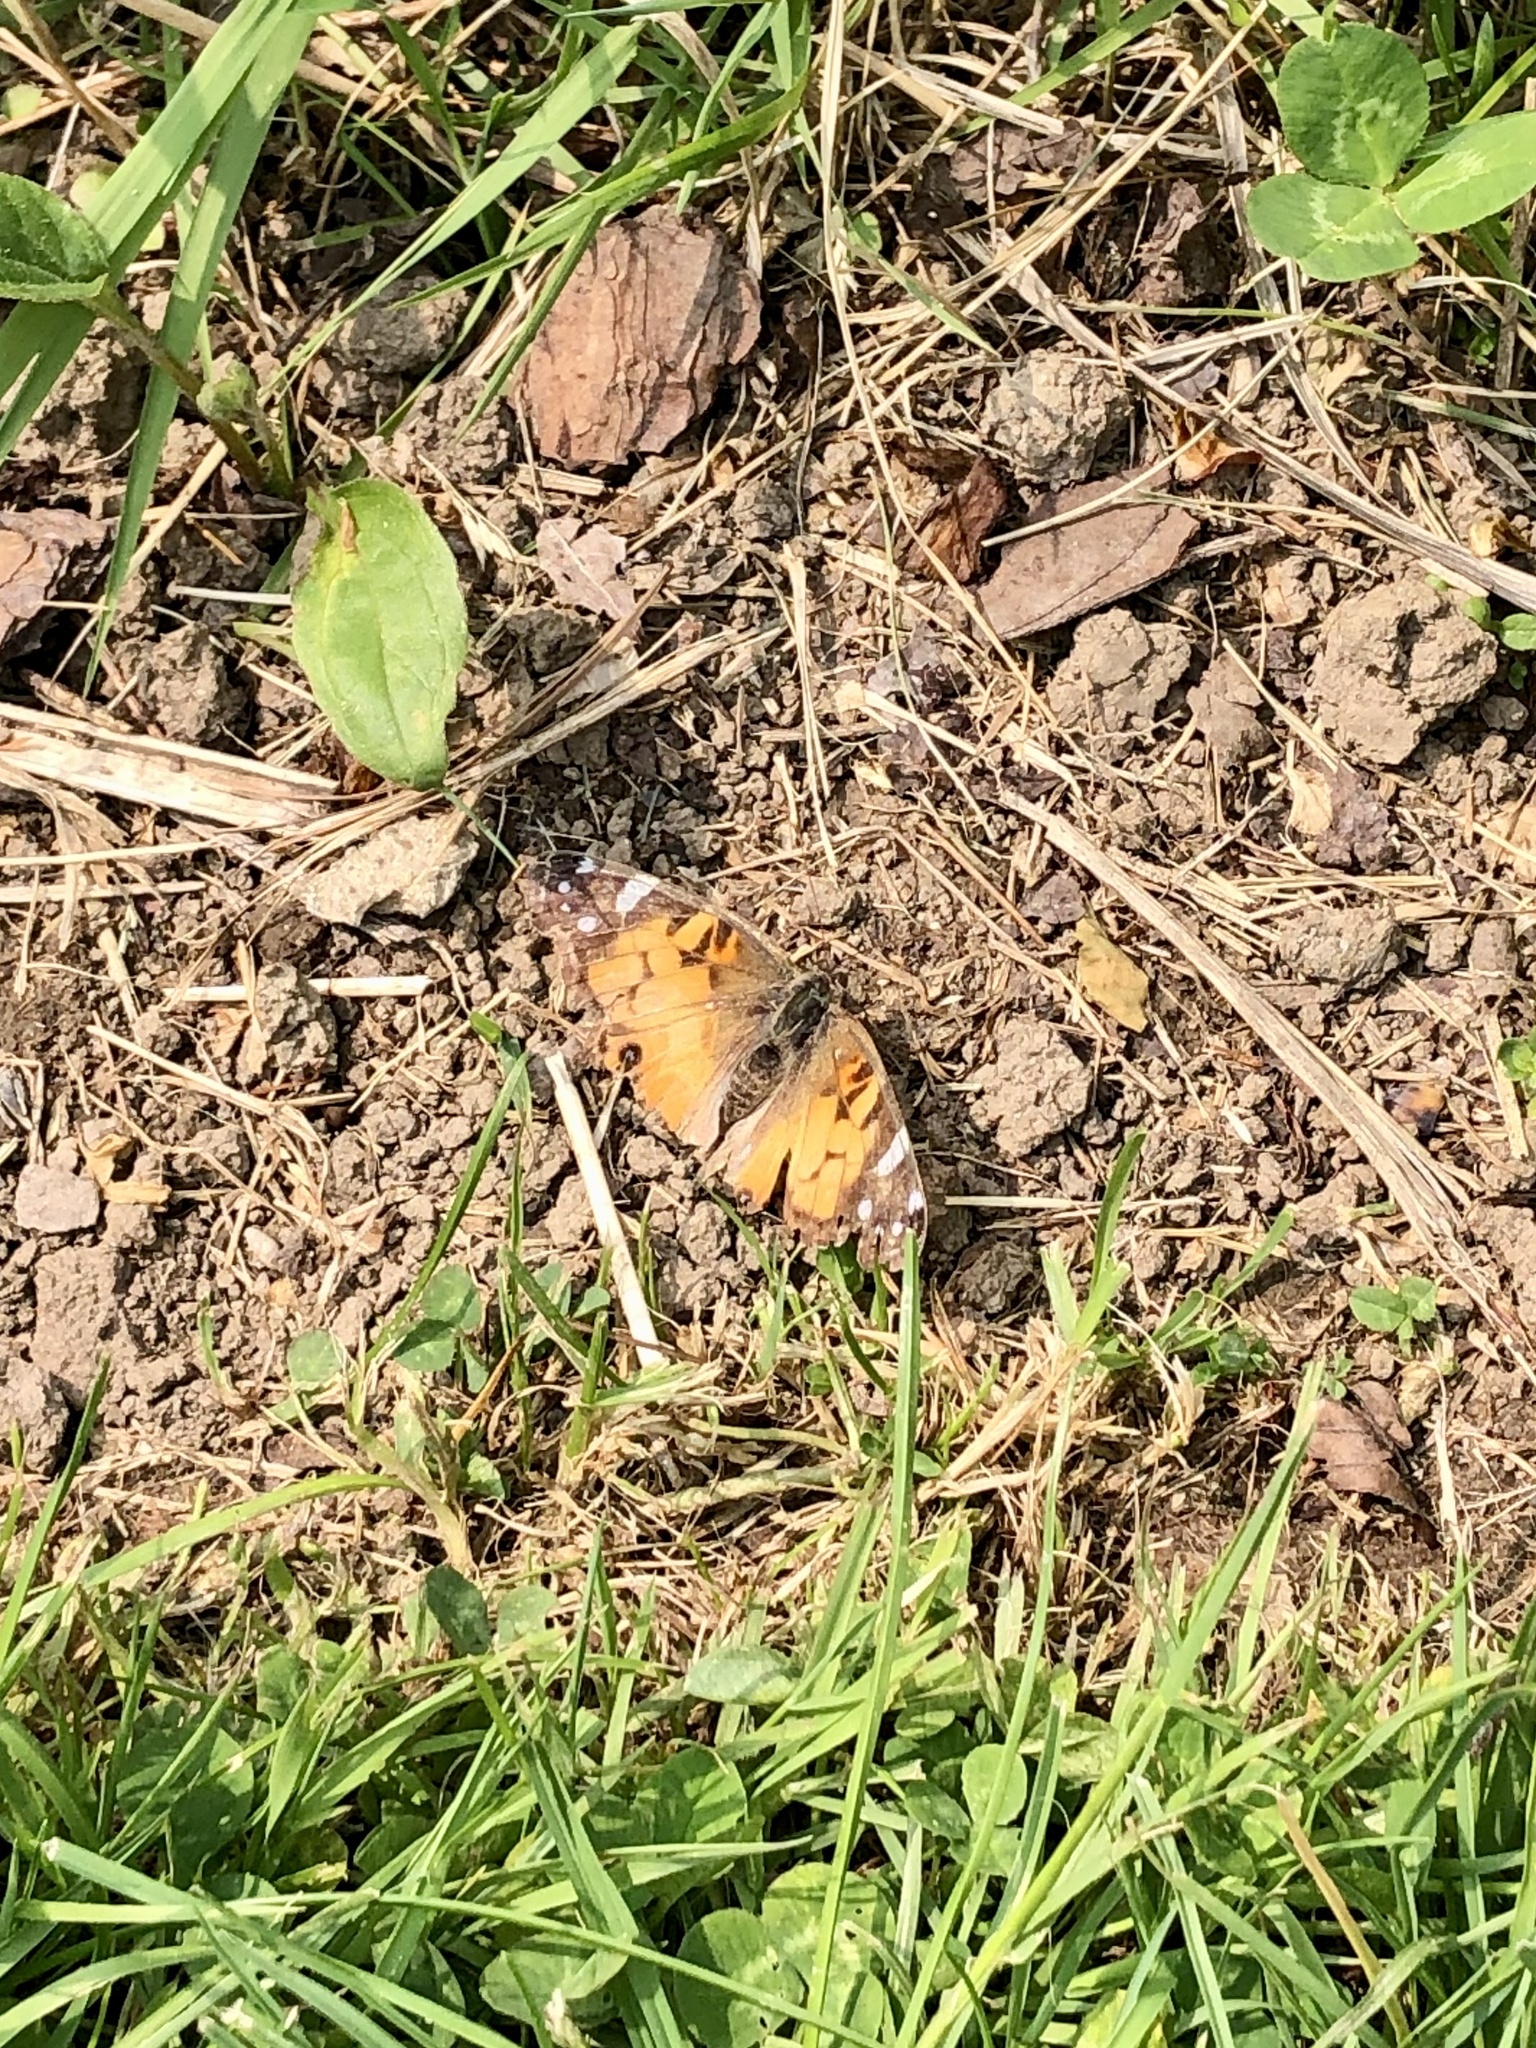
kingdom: Animalia
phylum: Arthropoda
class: Insecta
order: Lepidoptera
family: Nymphalidae
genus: Vanessa
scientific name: Vanessa virginiensis
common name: American lady
